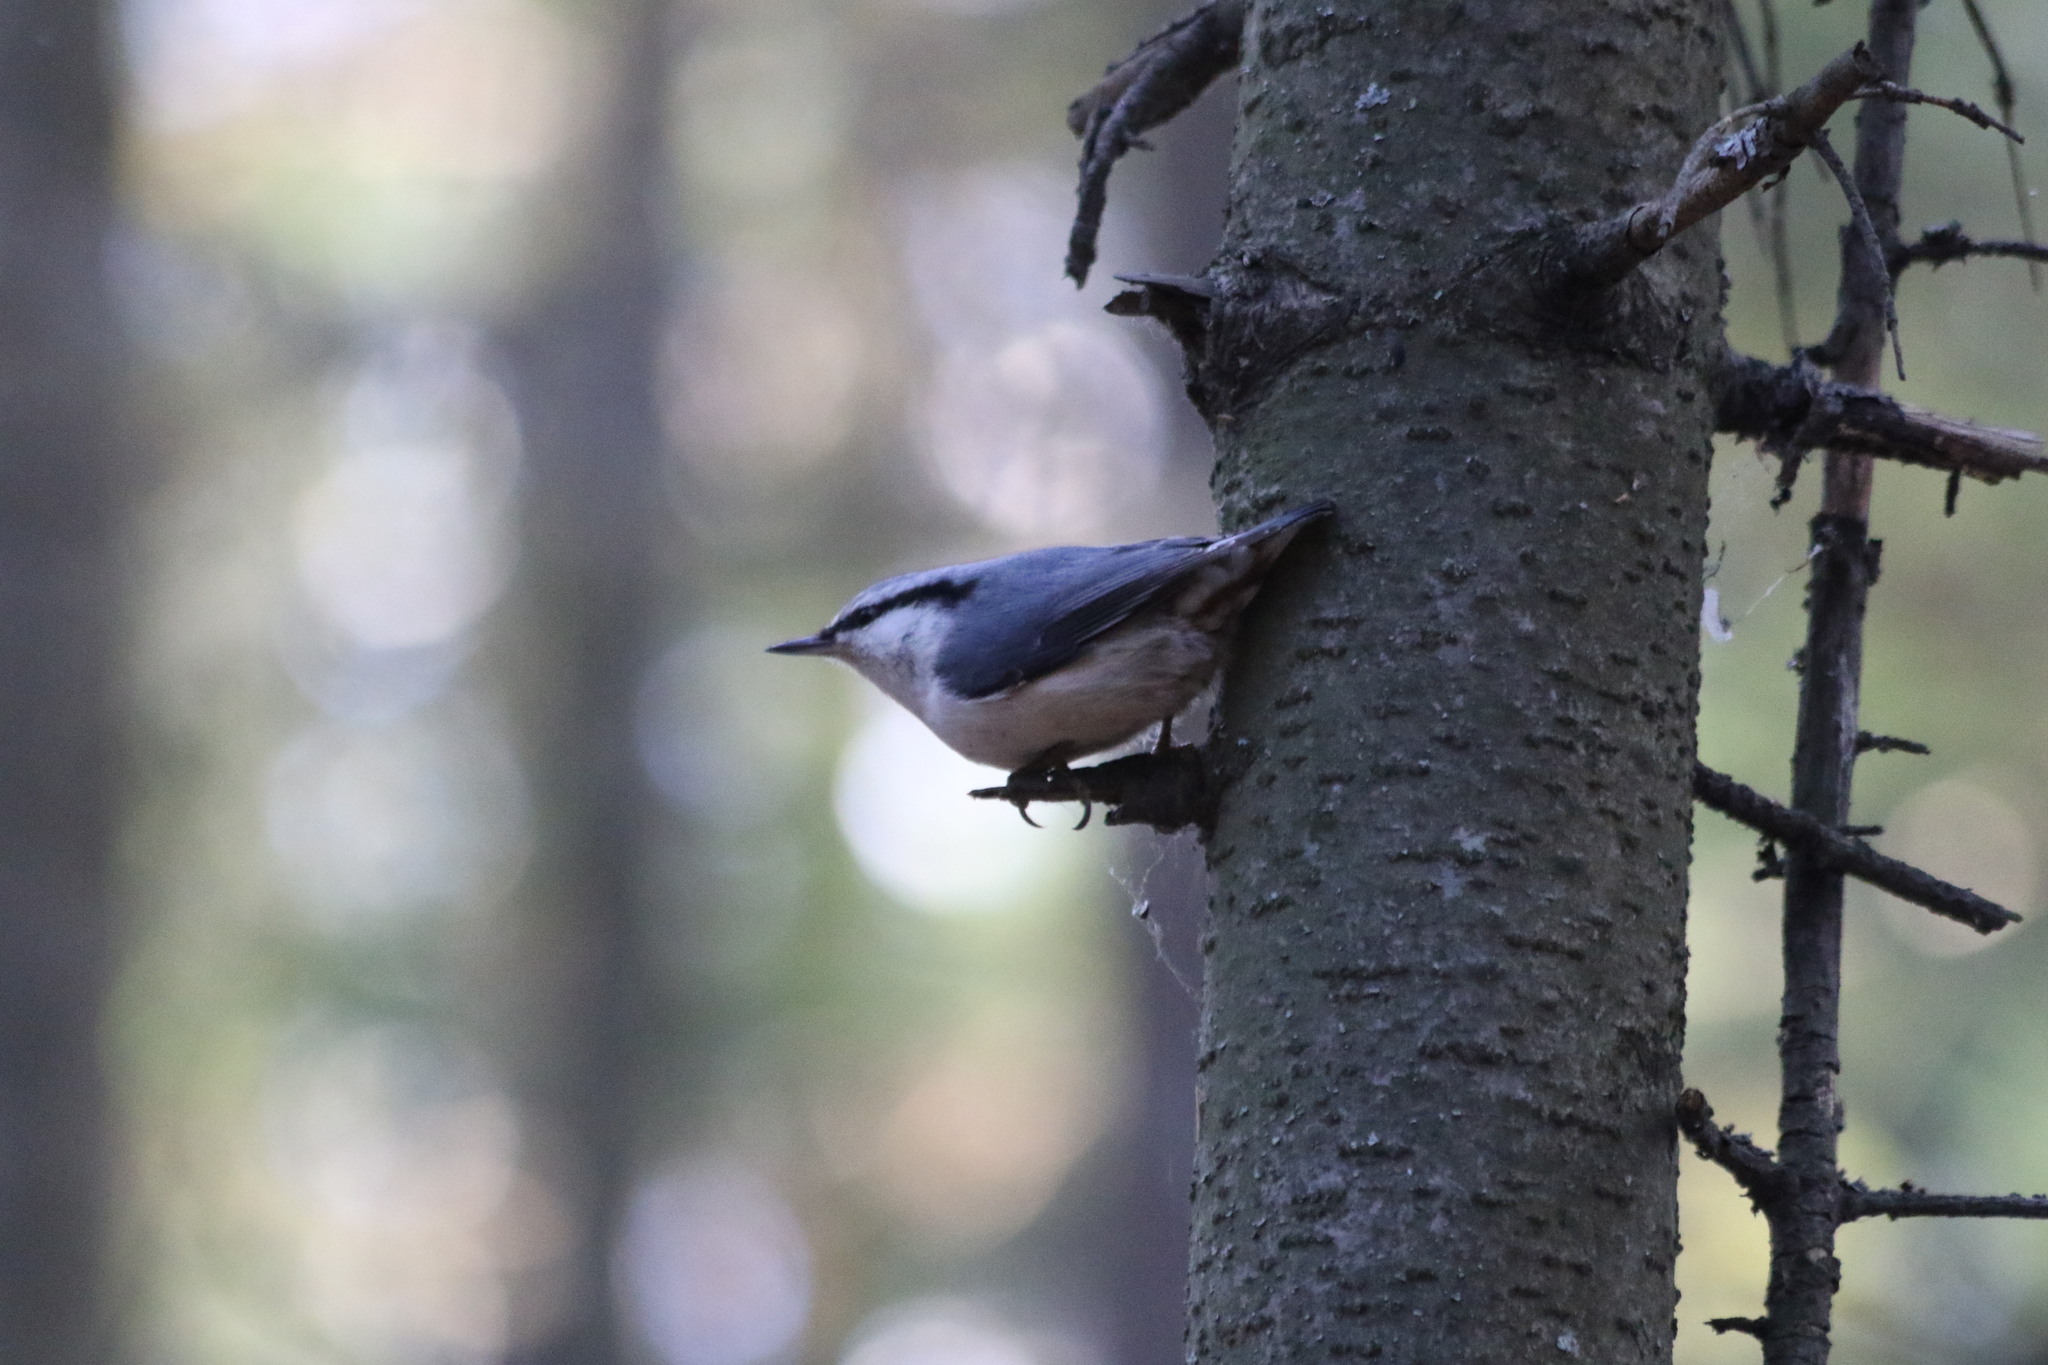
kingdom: Animalia
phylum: Chordata
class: Aves
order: Passeriformes
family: Sittidae
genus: Sitta
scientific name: Sitta europaea
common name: Eurasian nuthatch
